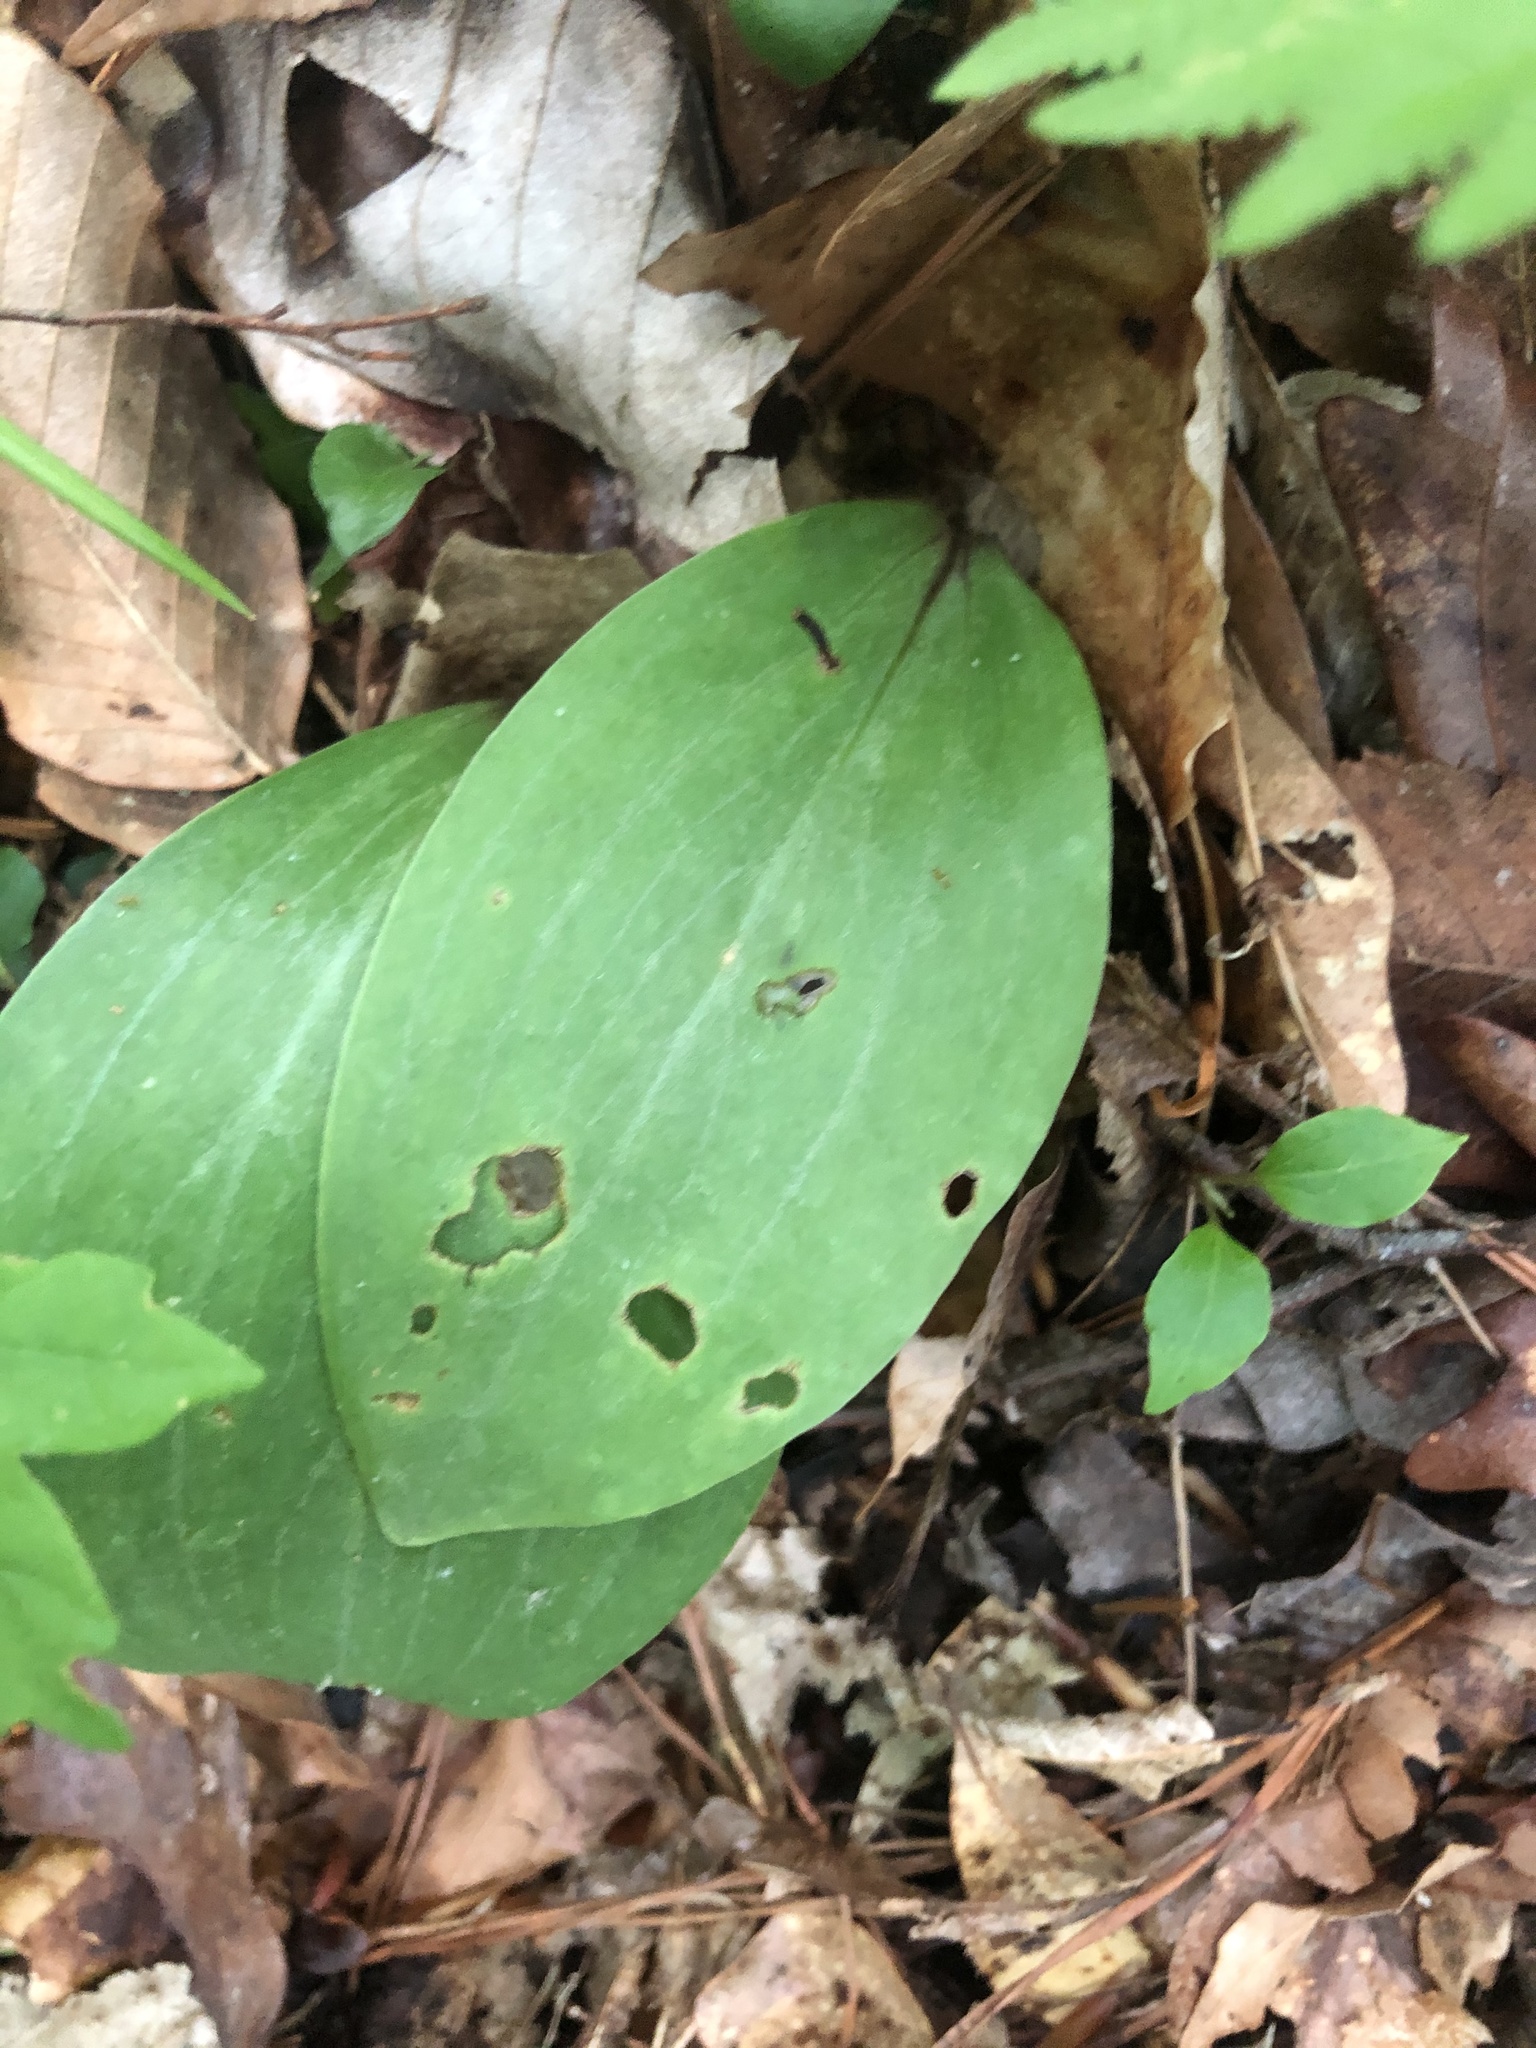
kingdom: Plantae
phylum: Tracheophyta
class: Liliopsida
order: Liliales
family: Liliaceae
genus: Lilium
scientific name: Lilium michauxii
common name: Carolina lily
